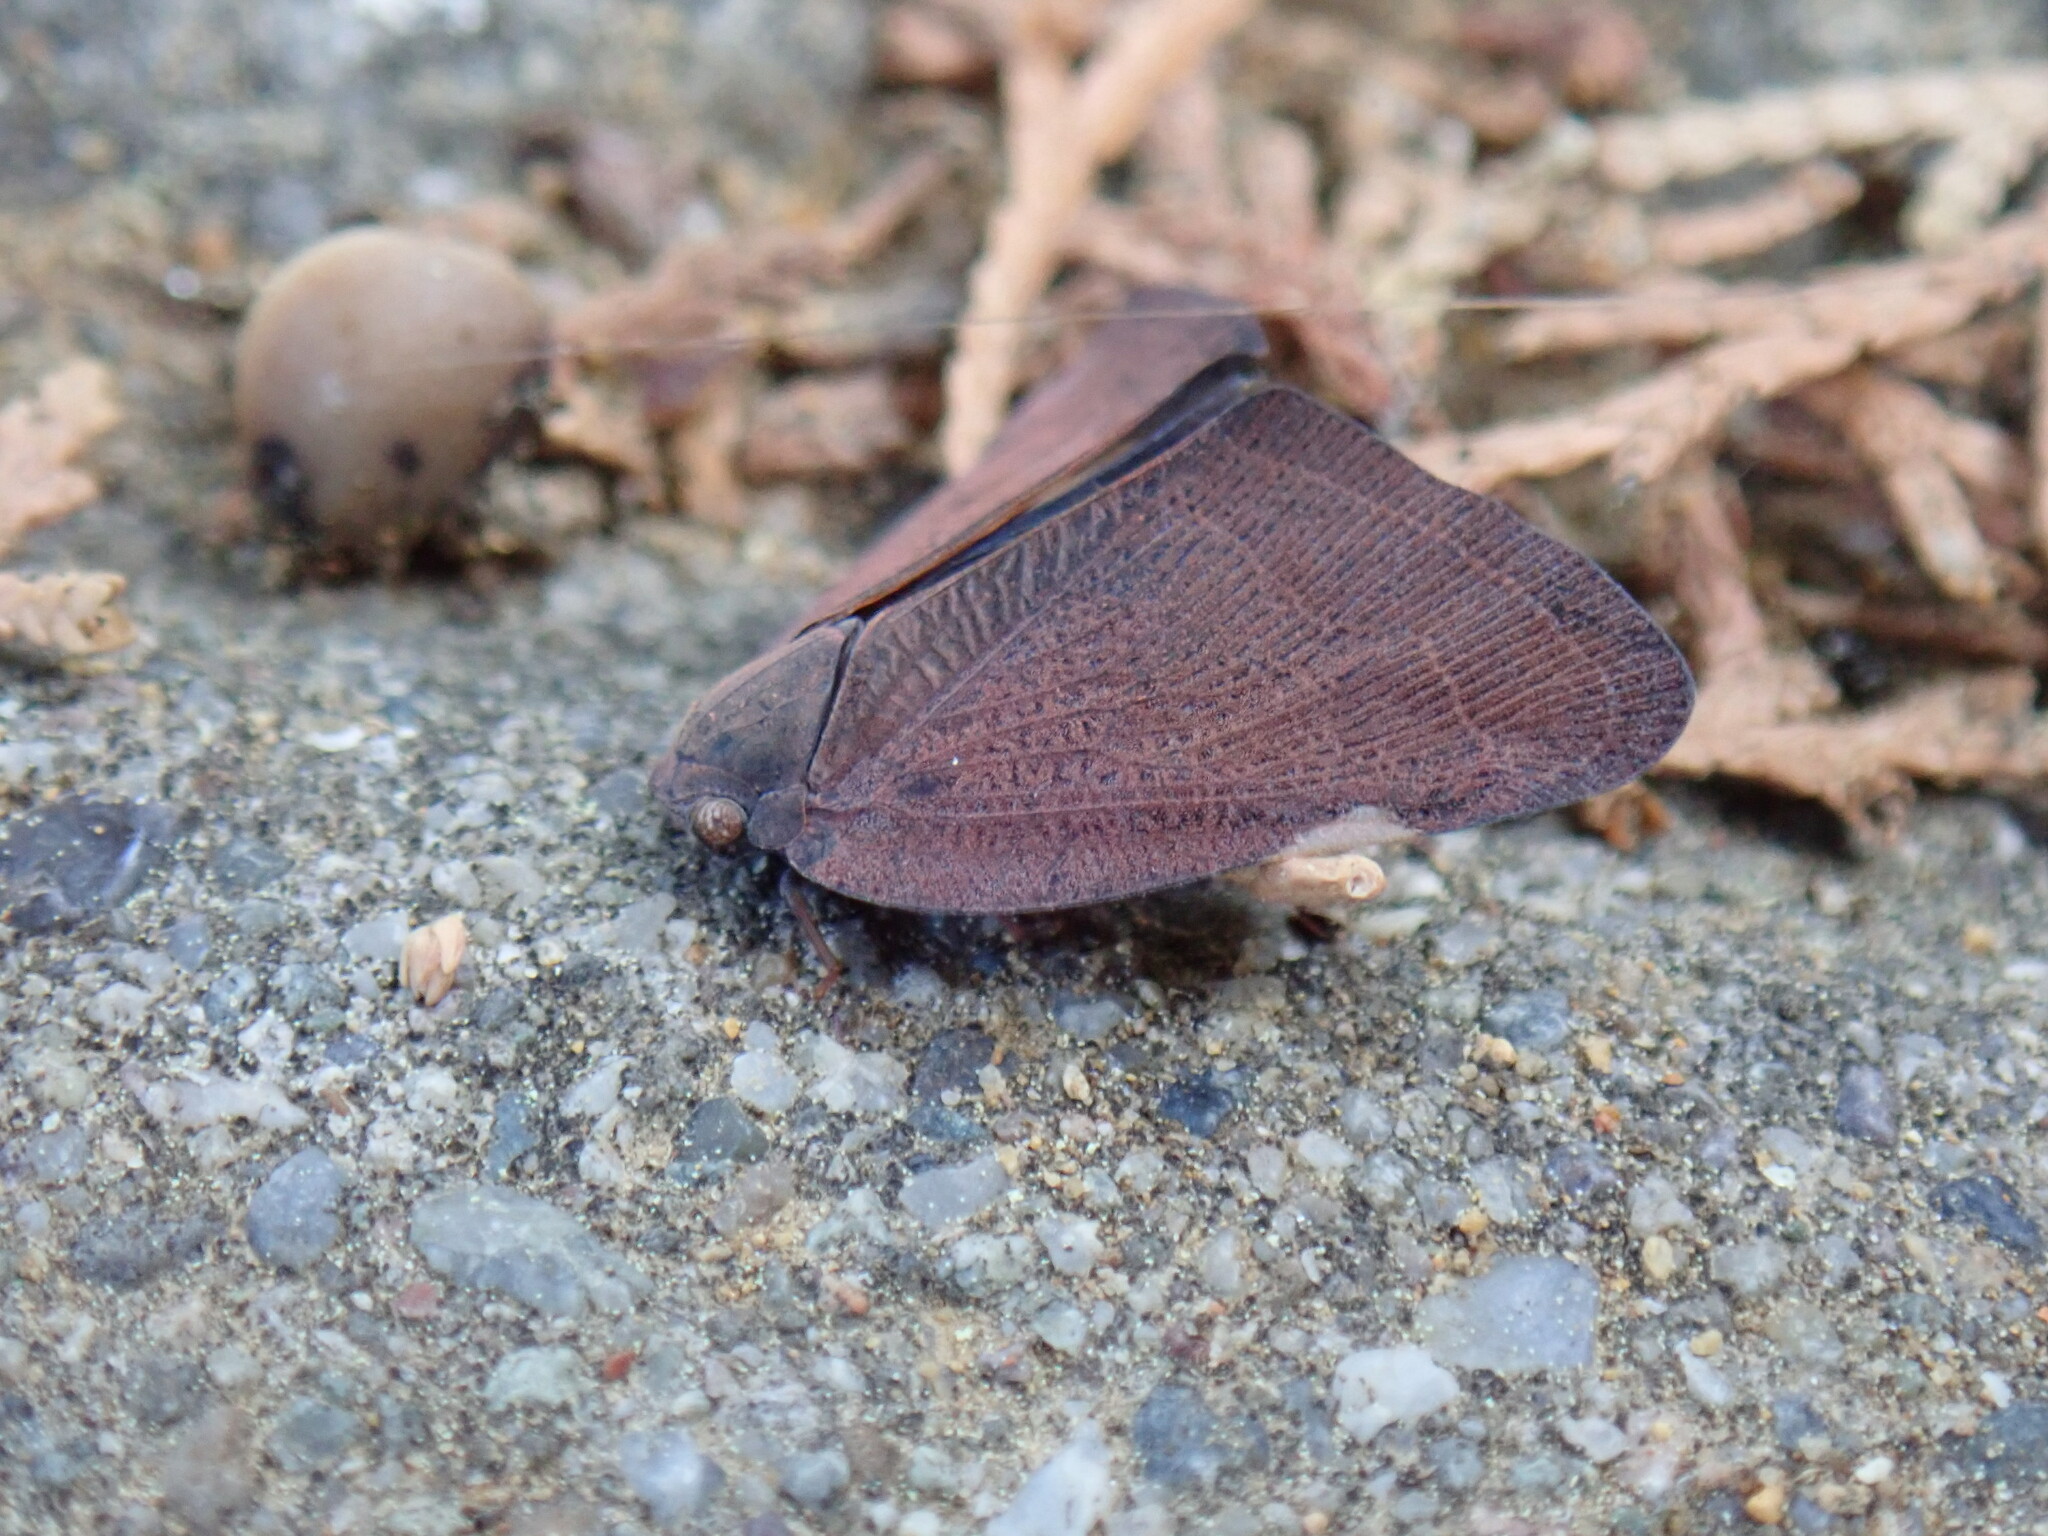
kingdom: Animalia
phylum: Arthropoda
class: Insecta
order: Hemiptera
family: Ricaniidae
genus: Ricania
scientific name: Ricania shantungensis
